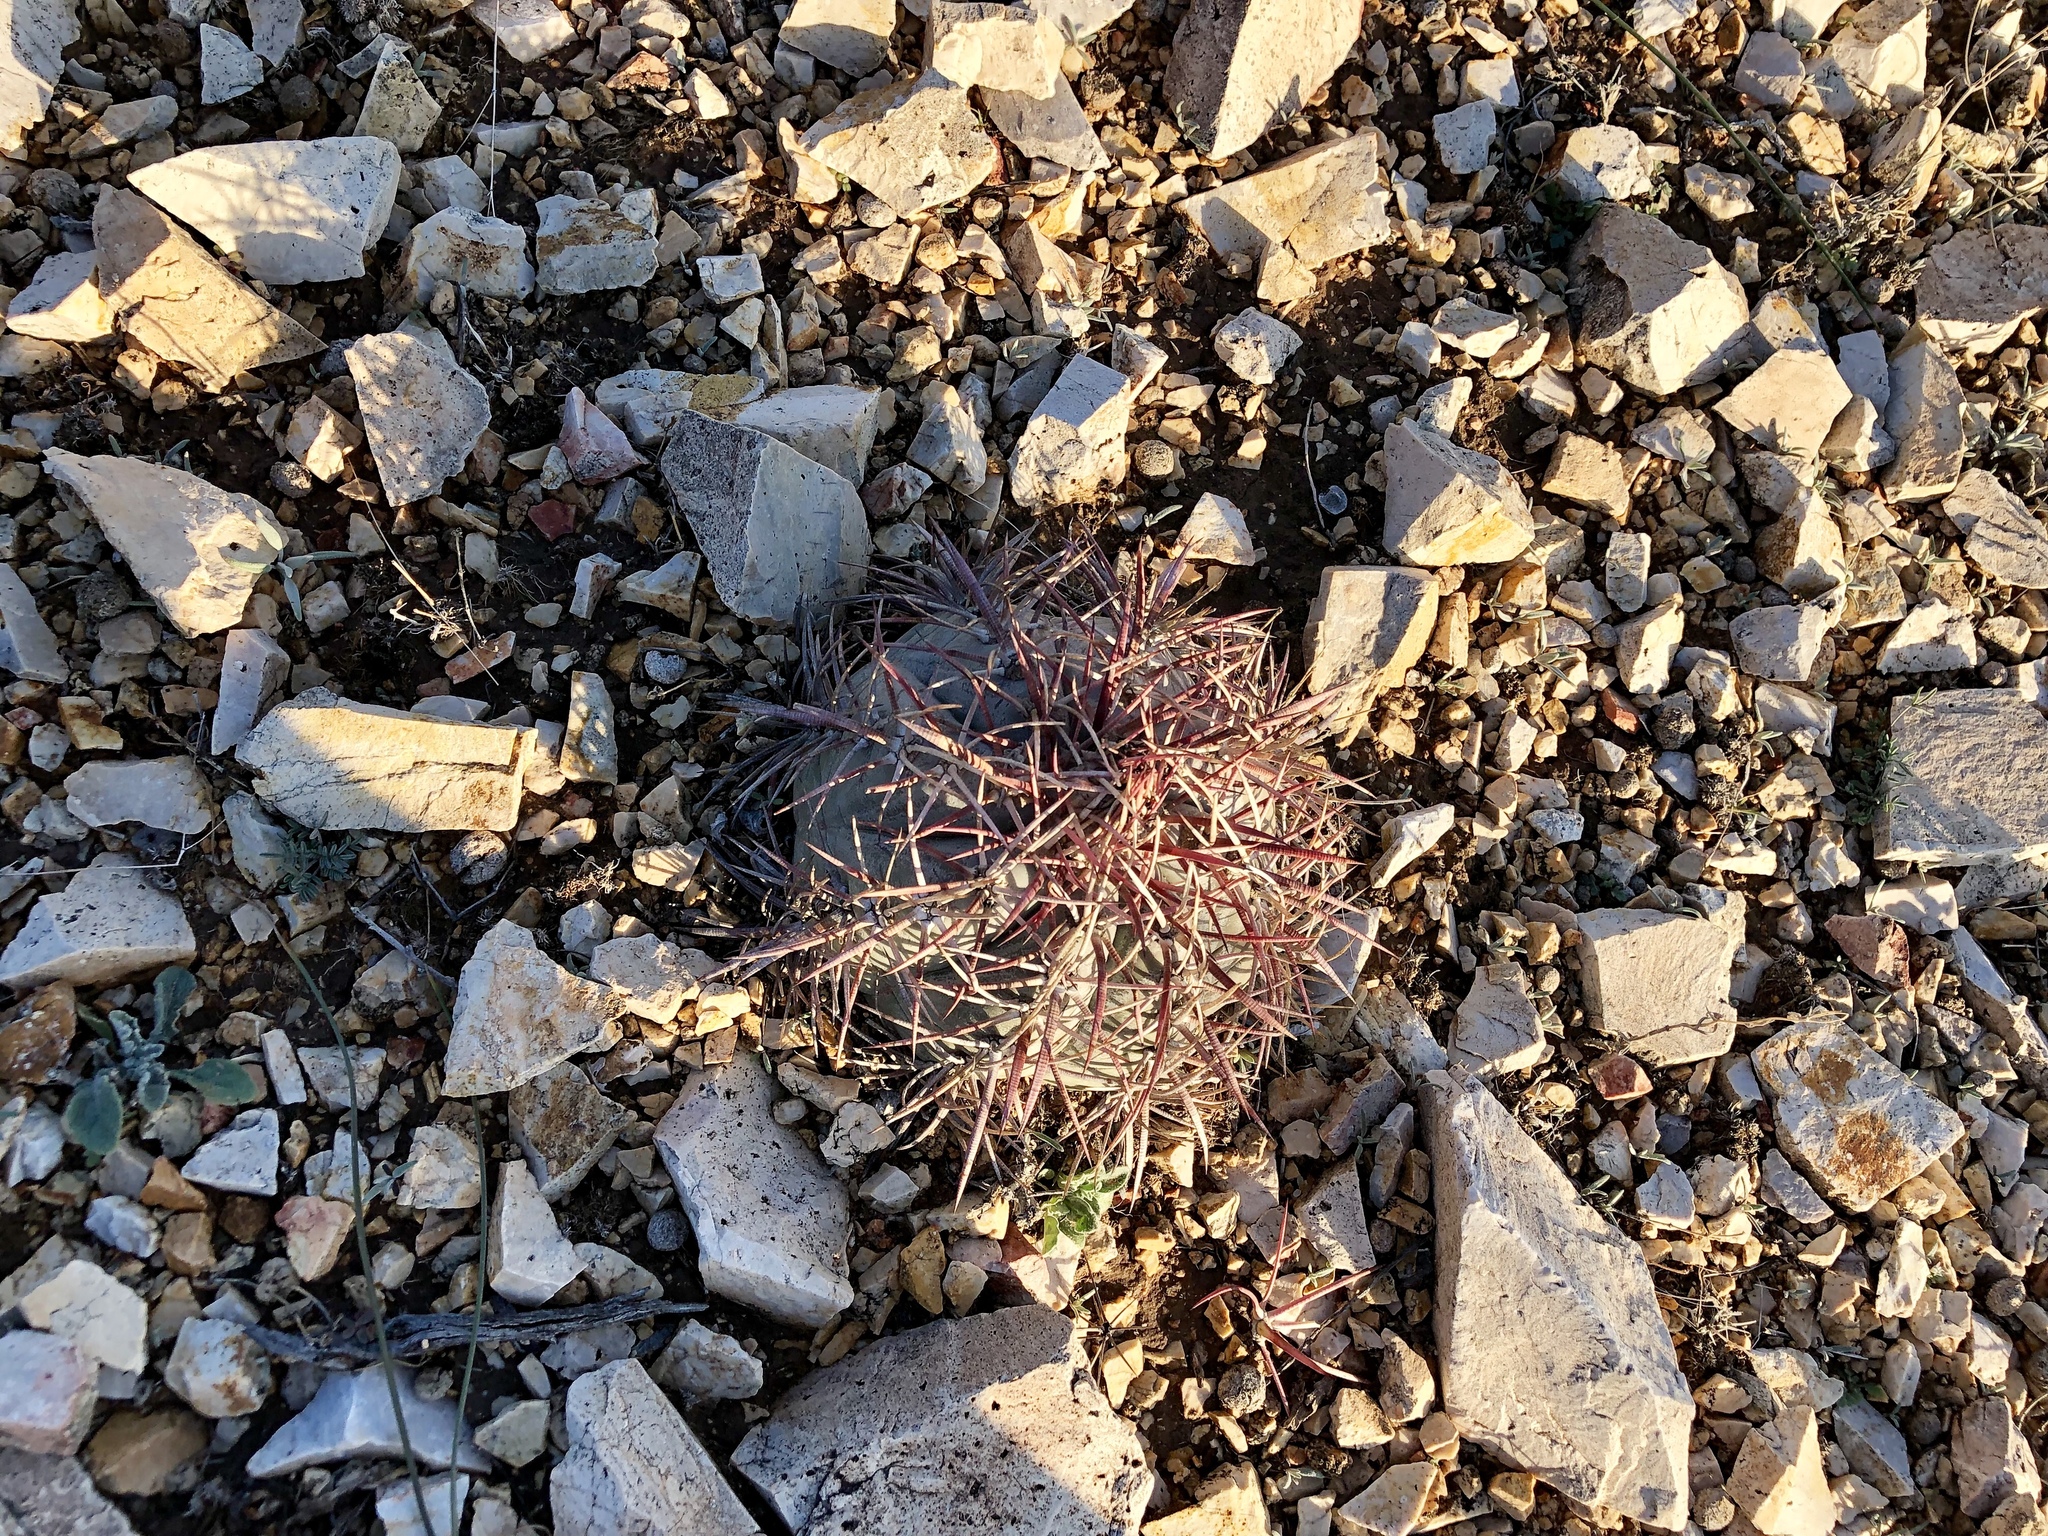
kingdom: Plantae
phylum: Tracheophyta
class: Magnoliopsida
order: Caryophyllales
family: Cactaceae
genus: Echinocactus
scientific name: Echinocactus horizonthalonius
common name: Devilshead
